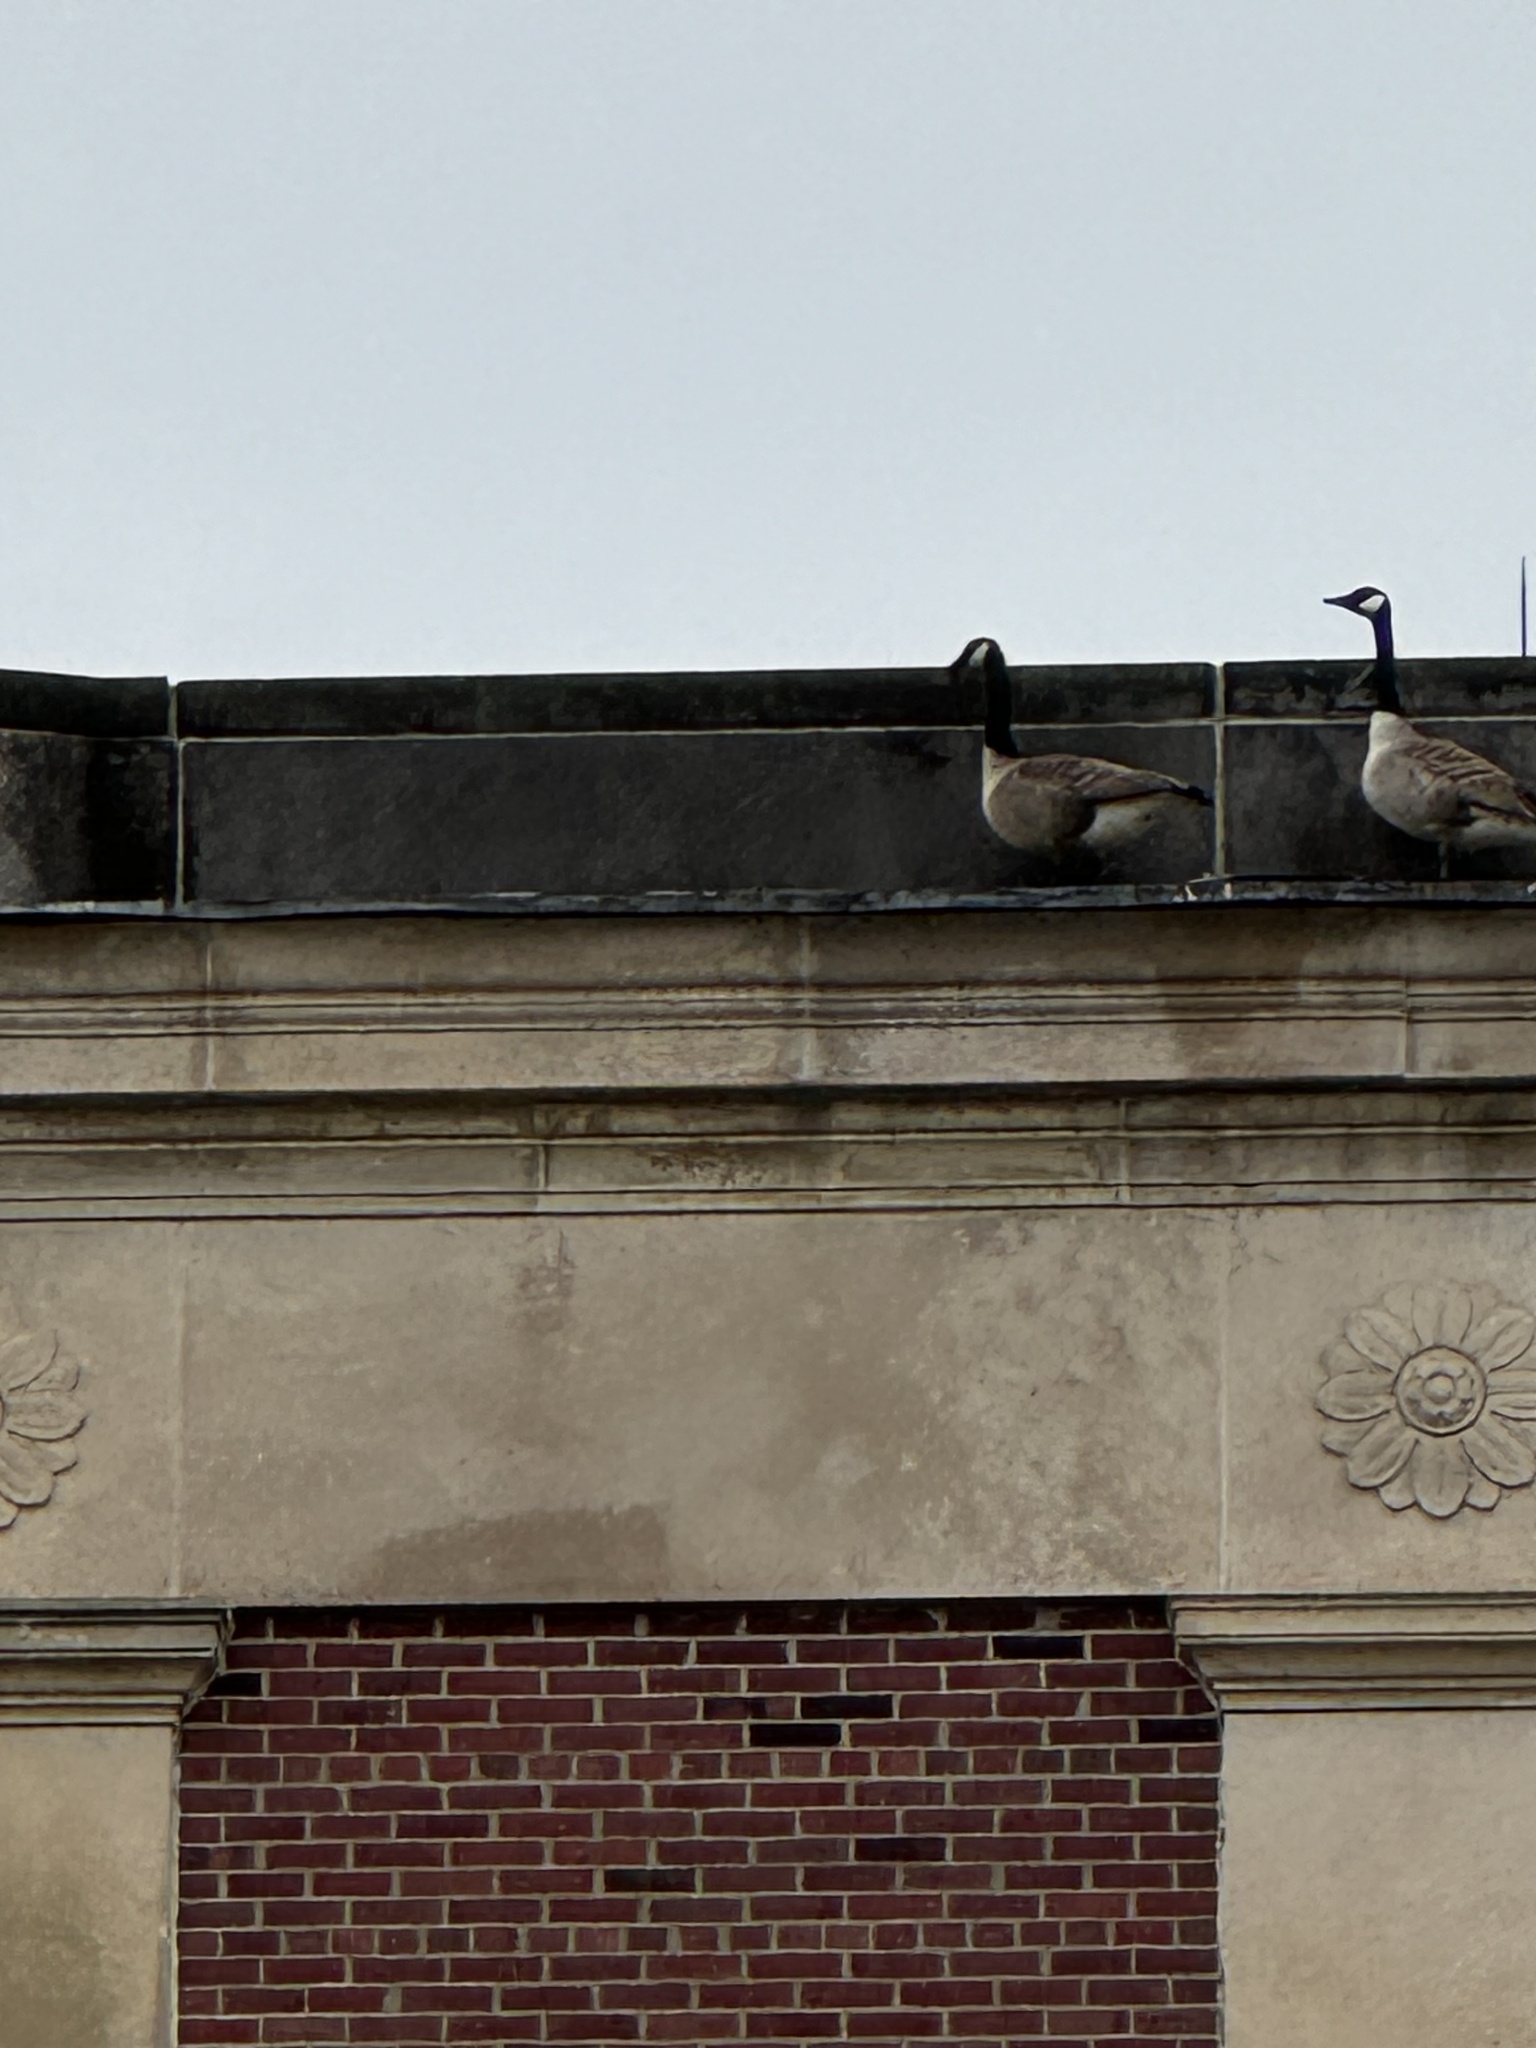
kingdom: Animalia
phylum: Chordata
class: Aves
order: Anseriformes
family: Anatidae
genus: Branta
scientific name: Branta canadensis
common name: Canada goose
